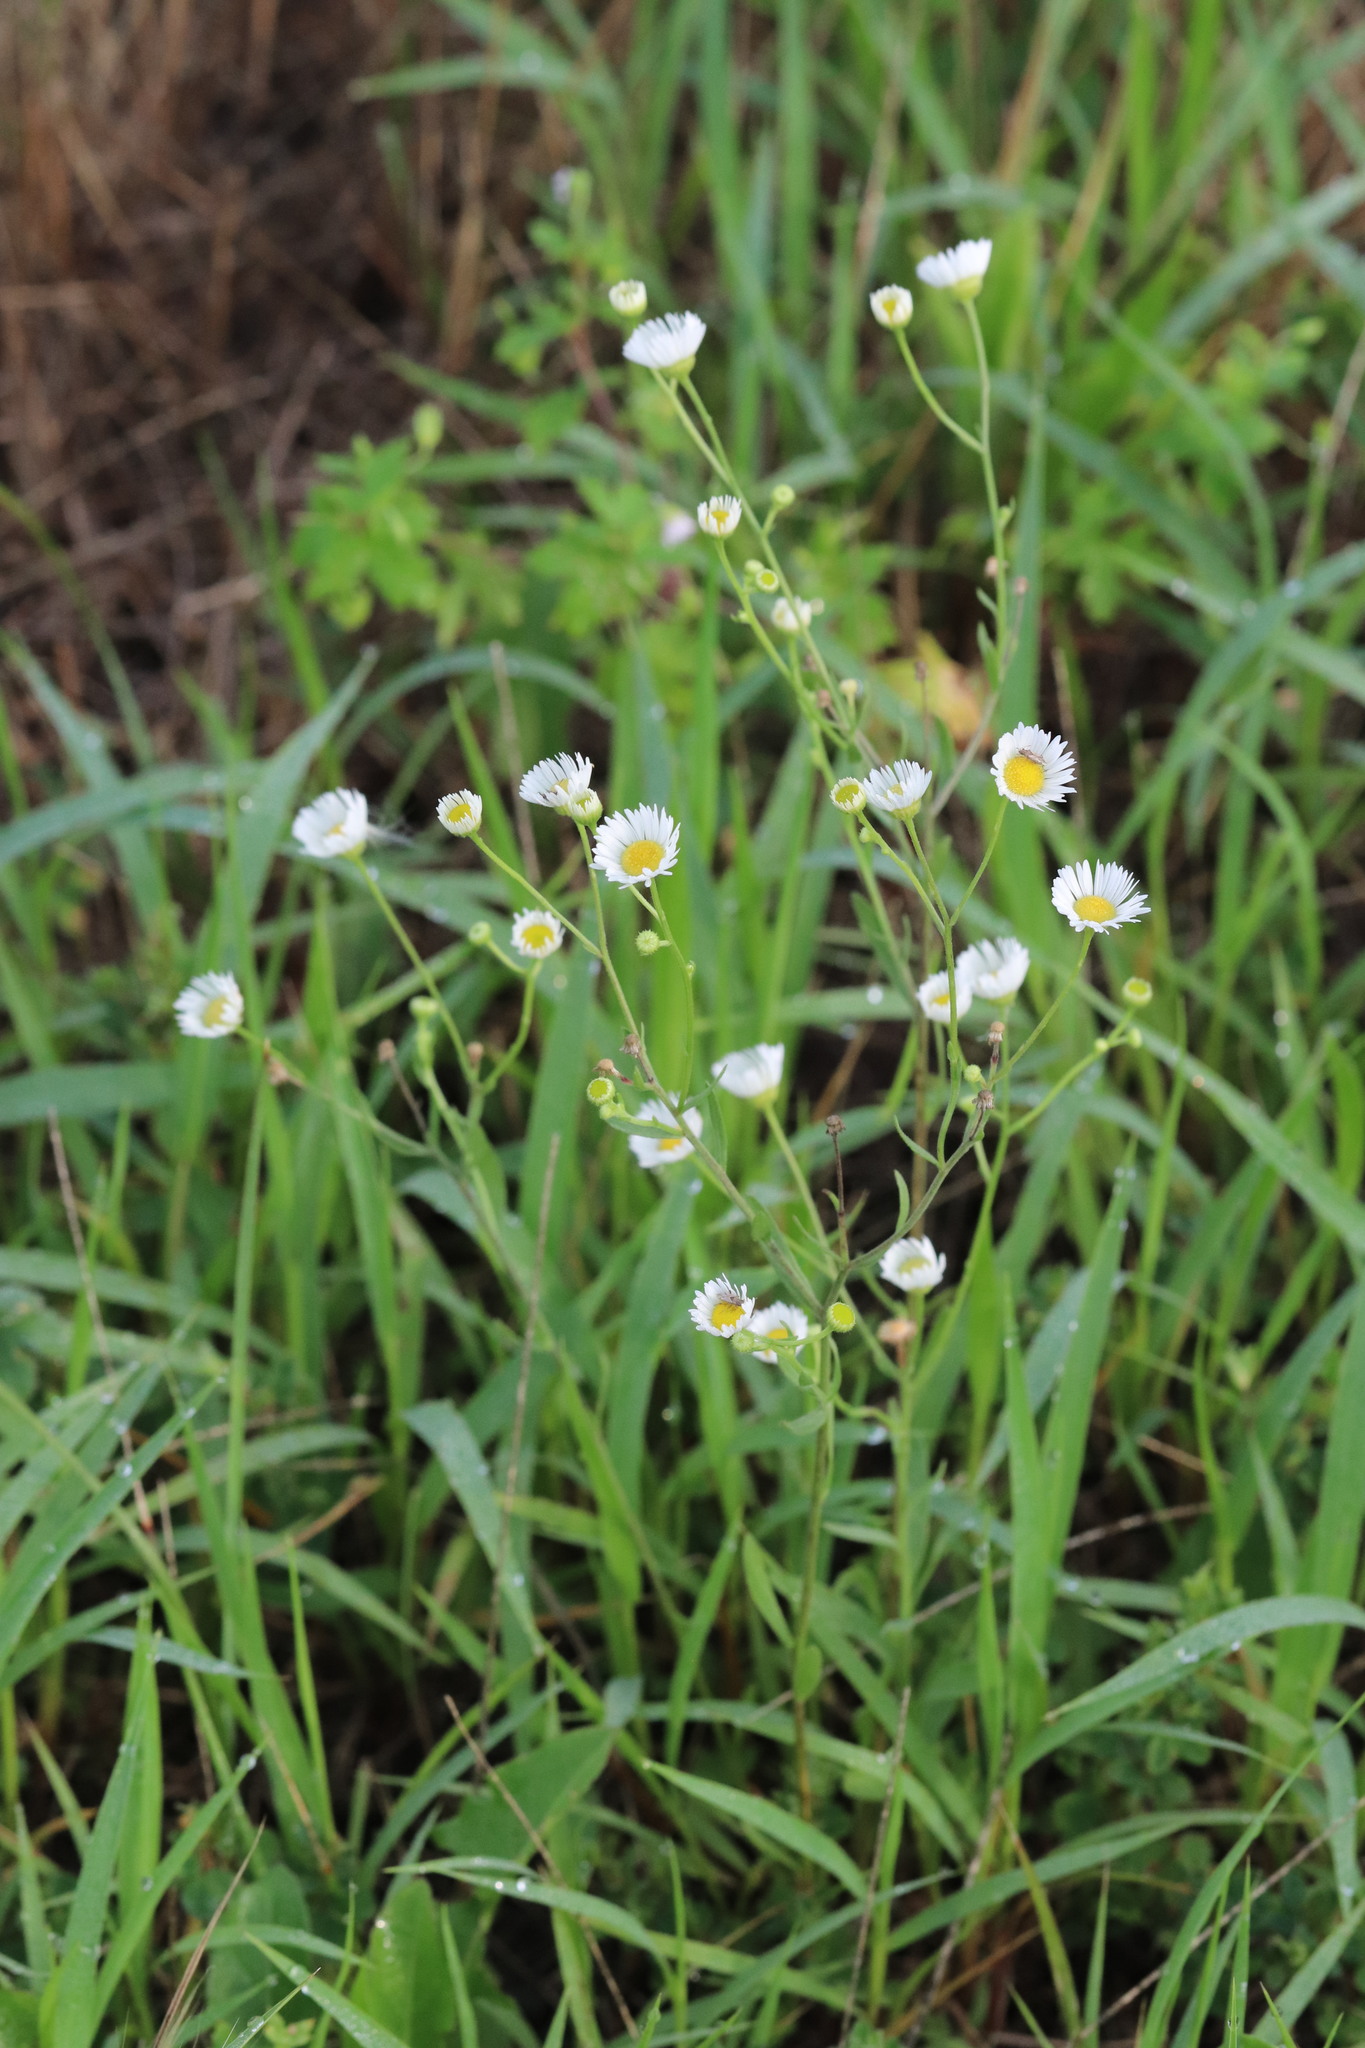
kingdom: Plantae
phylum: Tracheophyta
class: Magnoliopsida
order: Asterales
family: Asteraceae
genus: Erigeron
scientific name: Erigeron strigosus
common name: Common eastern fleabane
